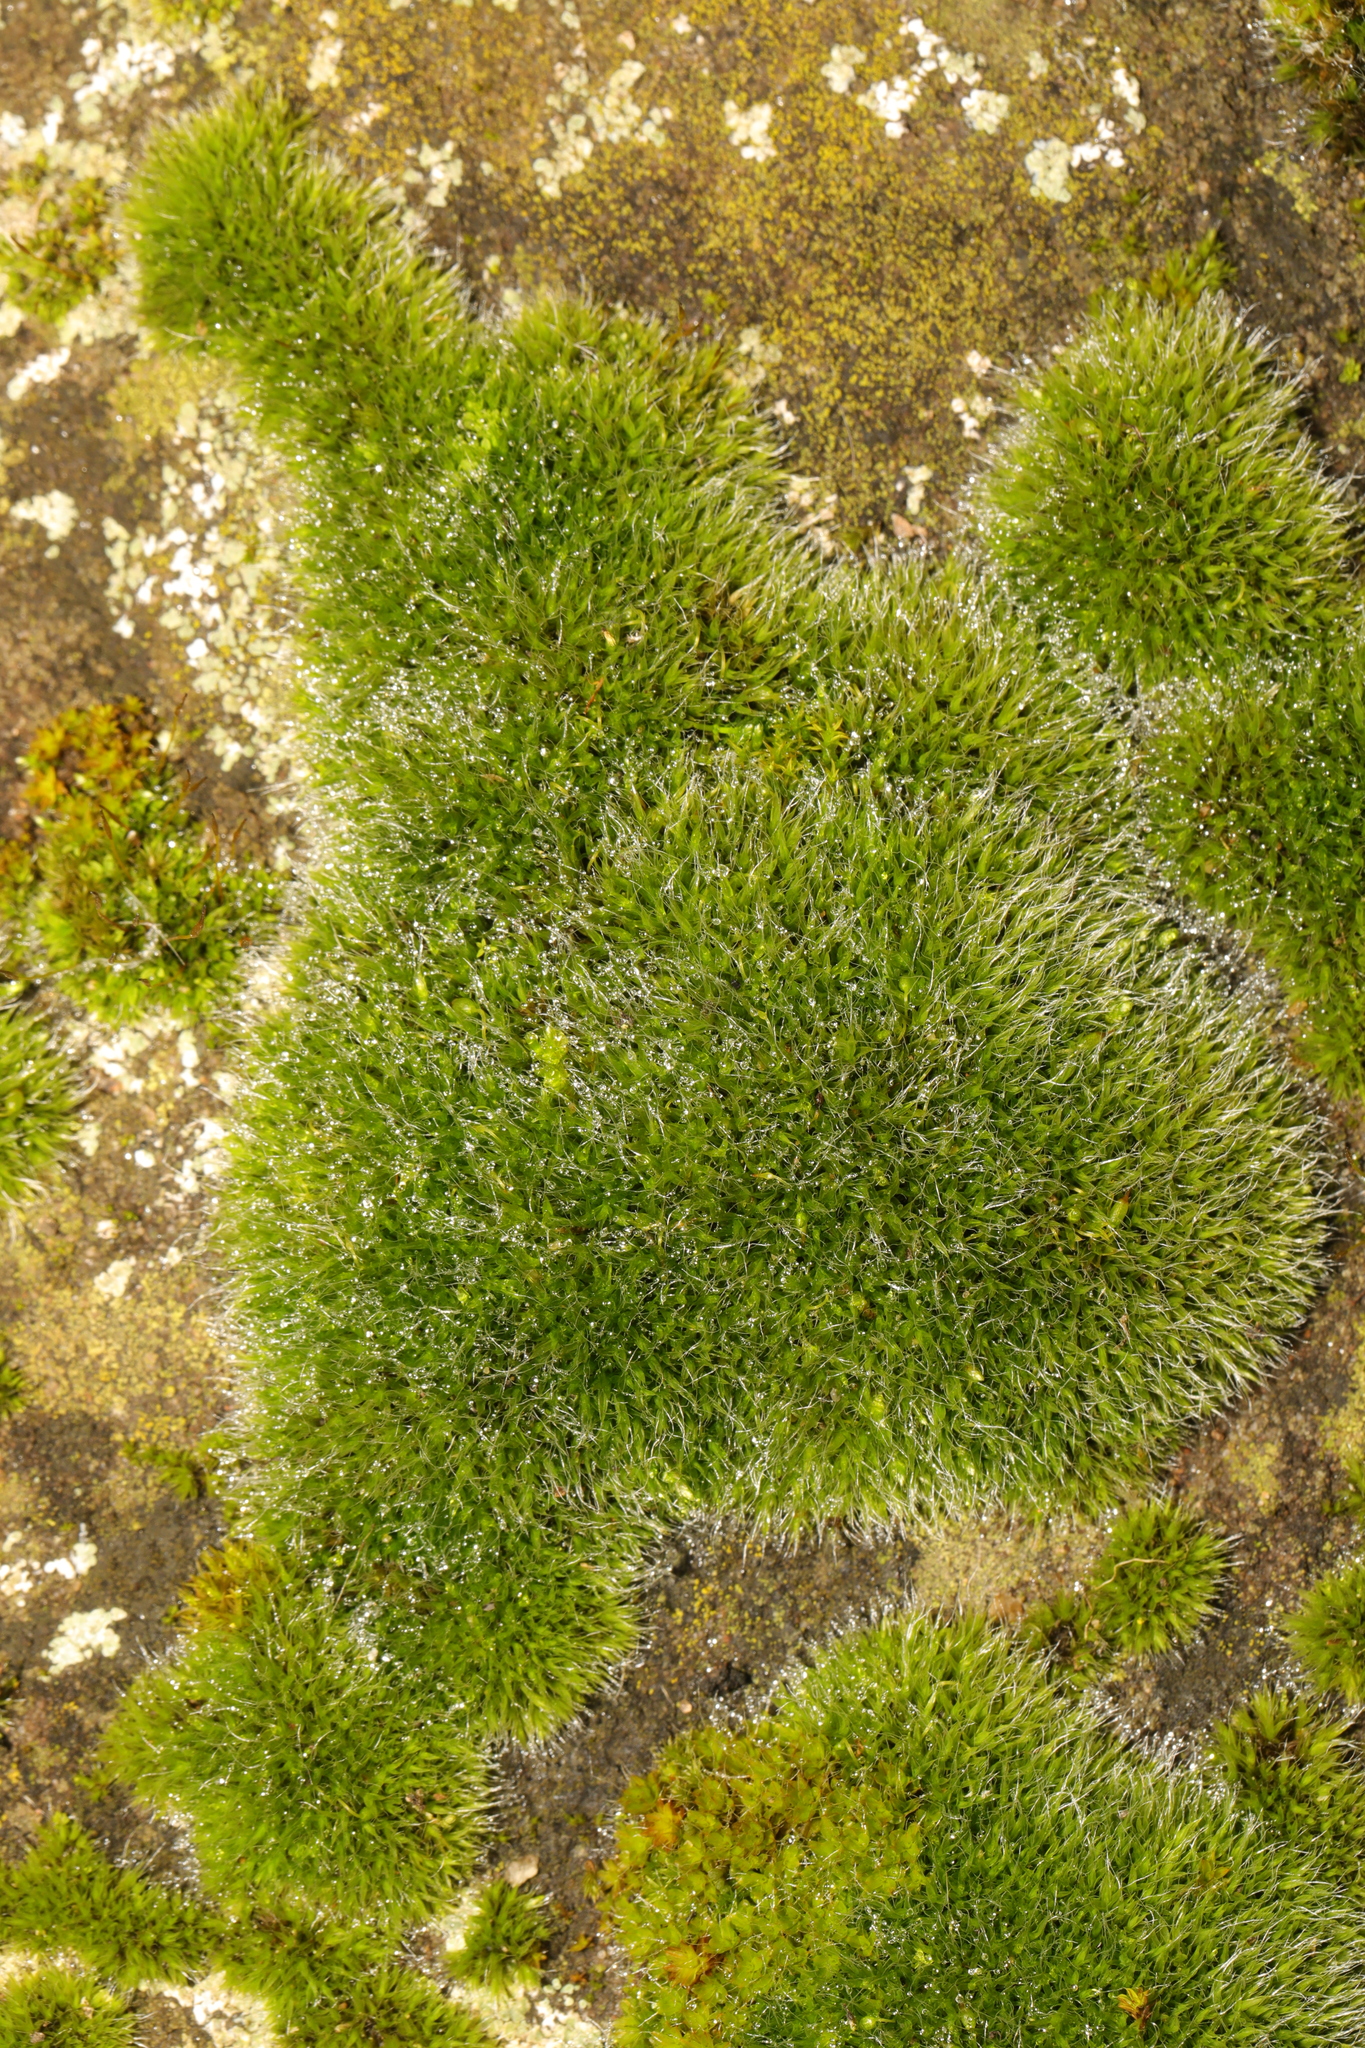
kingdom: Plantae
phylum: Bryophyta
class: Bryopsida
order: Grimmiales
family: Grimmiaceae
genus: Grimmia
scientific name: Grimmia pulvinata
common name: Grey-cushioned grimmia
